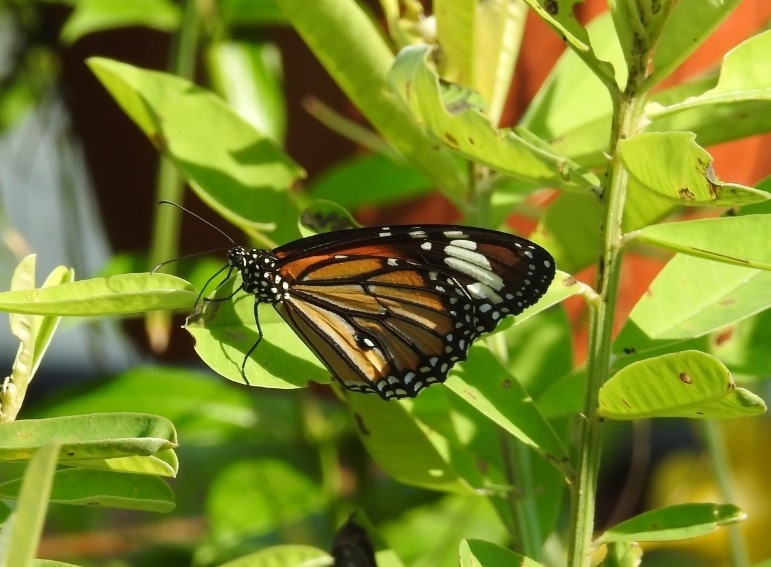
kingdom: Animalia
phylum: Arthropoda
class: Insecta
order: Lepidoptera
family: Nymphalidae
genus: Danaus
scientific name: Danaus genutia
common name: Common tiger butterfly
